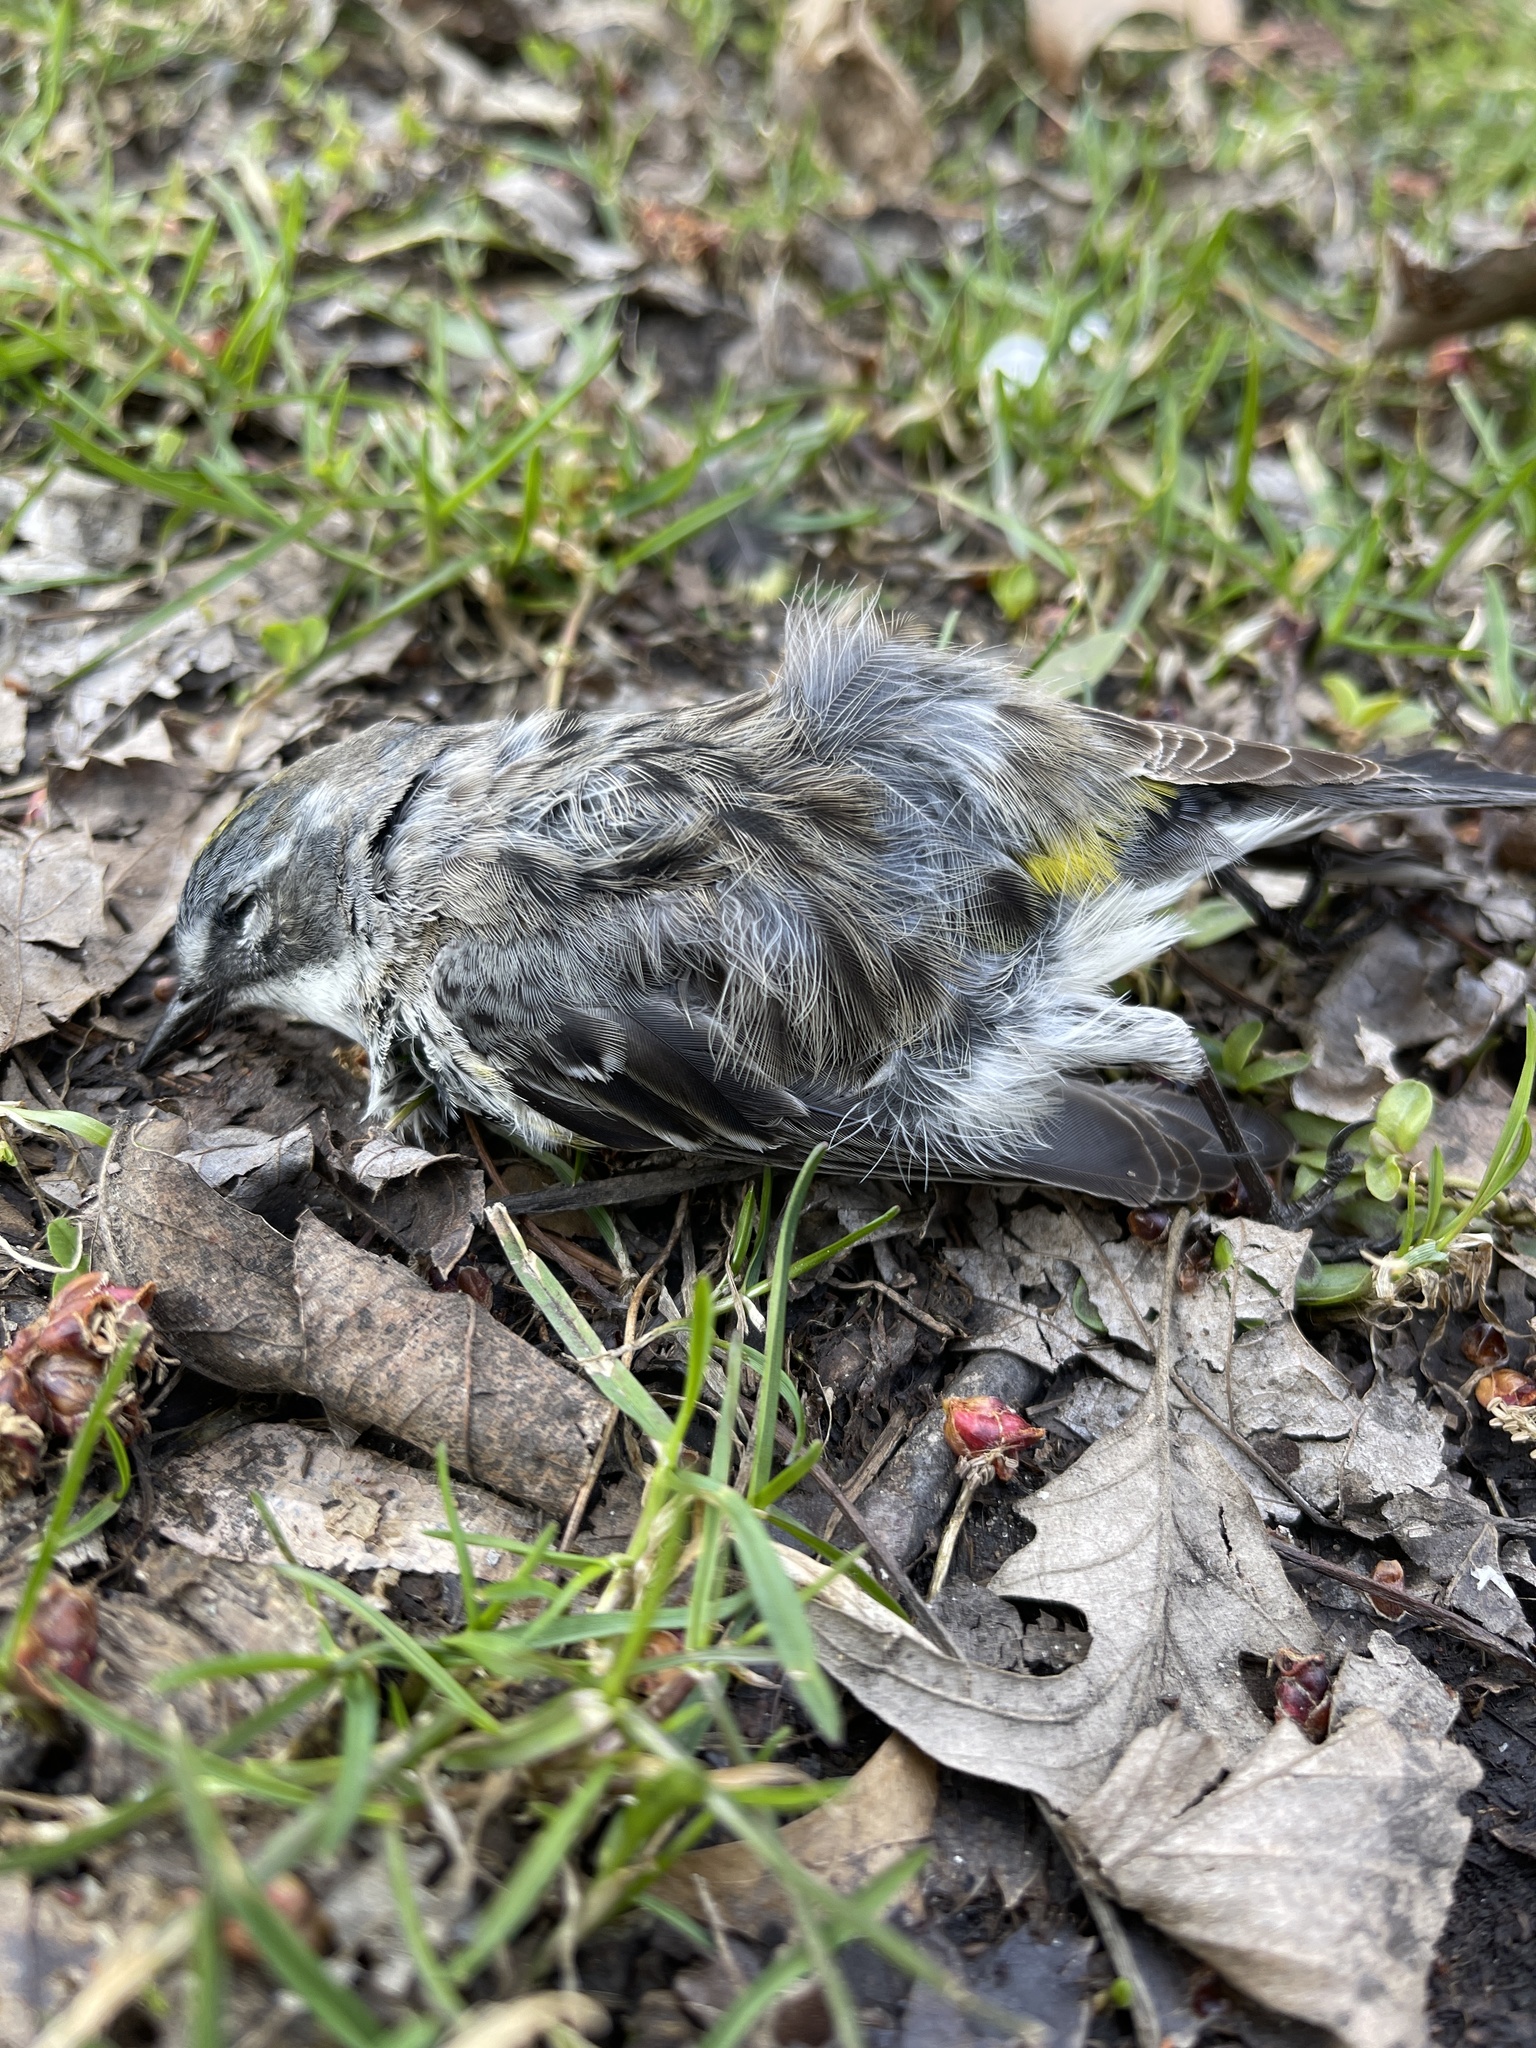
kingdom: Animalia
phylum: Chordata
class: Aves
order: Passeriformes
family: Parulidae
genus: Setophaga
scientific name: Setophaga coronata
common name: Myrtle warbler
